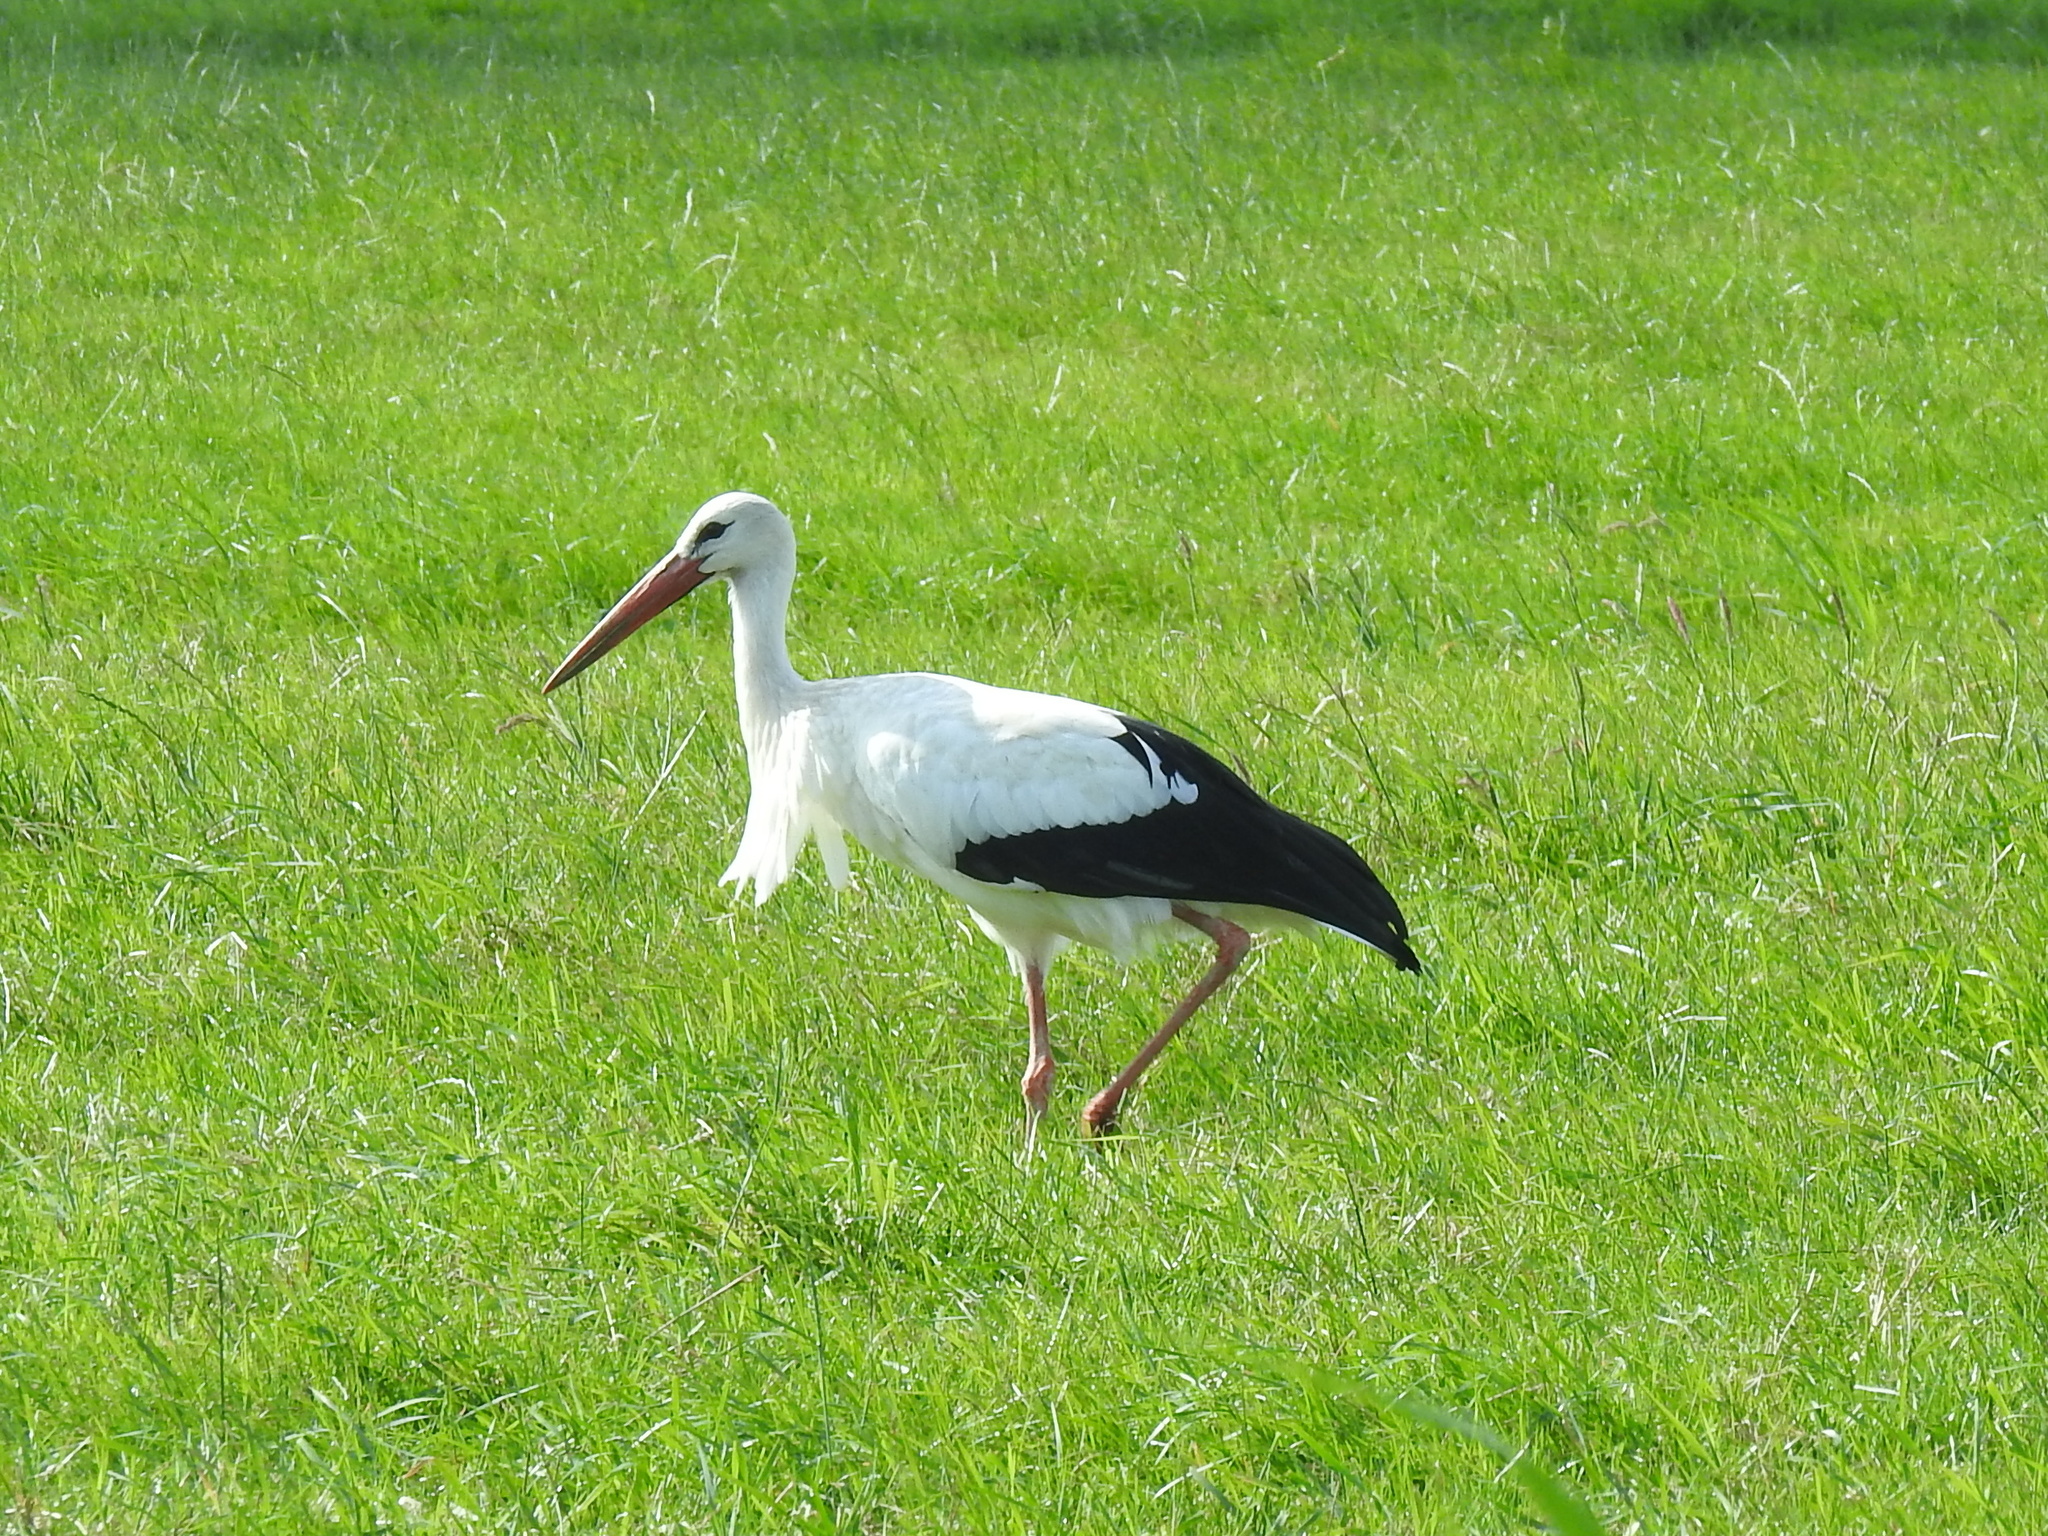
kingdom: Animalia
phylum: Chordata
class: Aves
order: Ciconiiformes
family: Ciconiidae
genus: Ciconia
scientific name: Ciconia ciconia
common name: White stork
